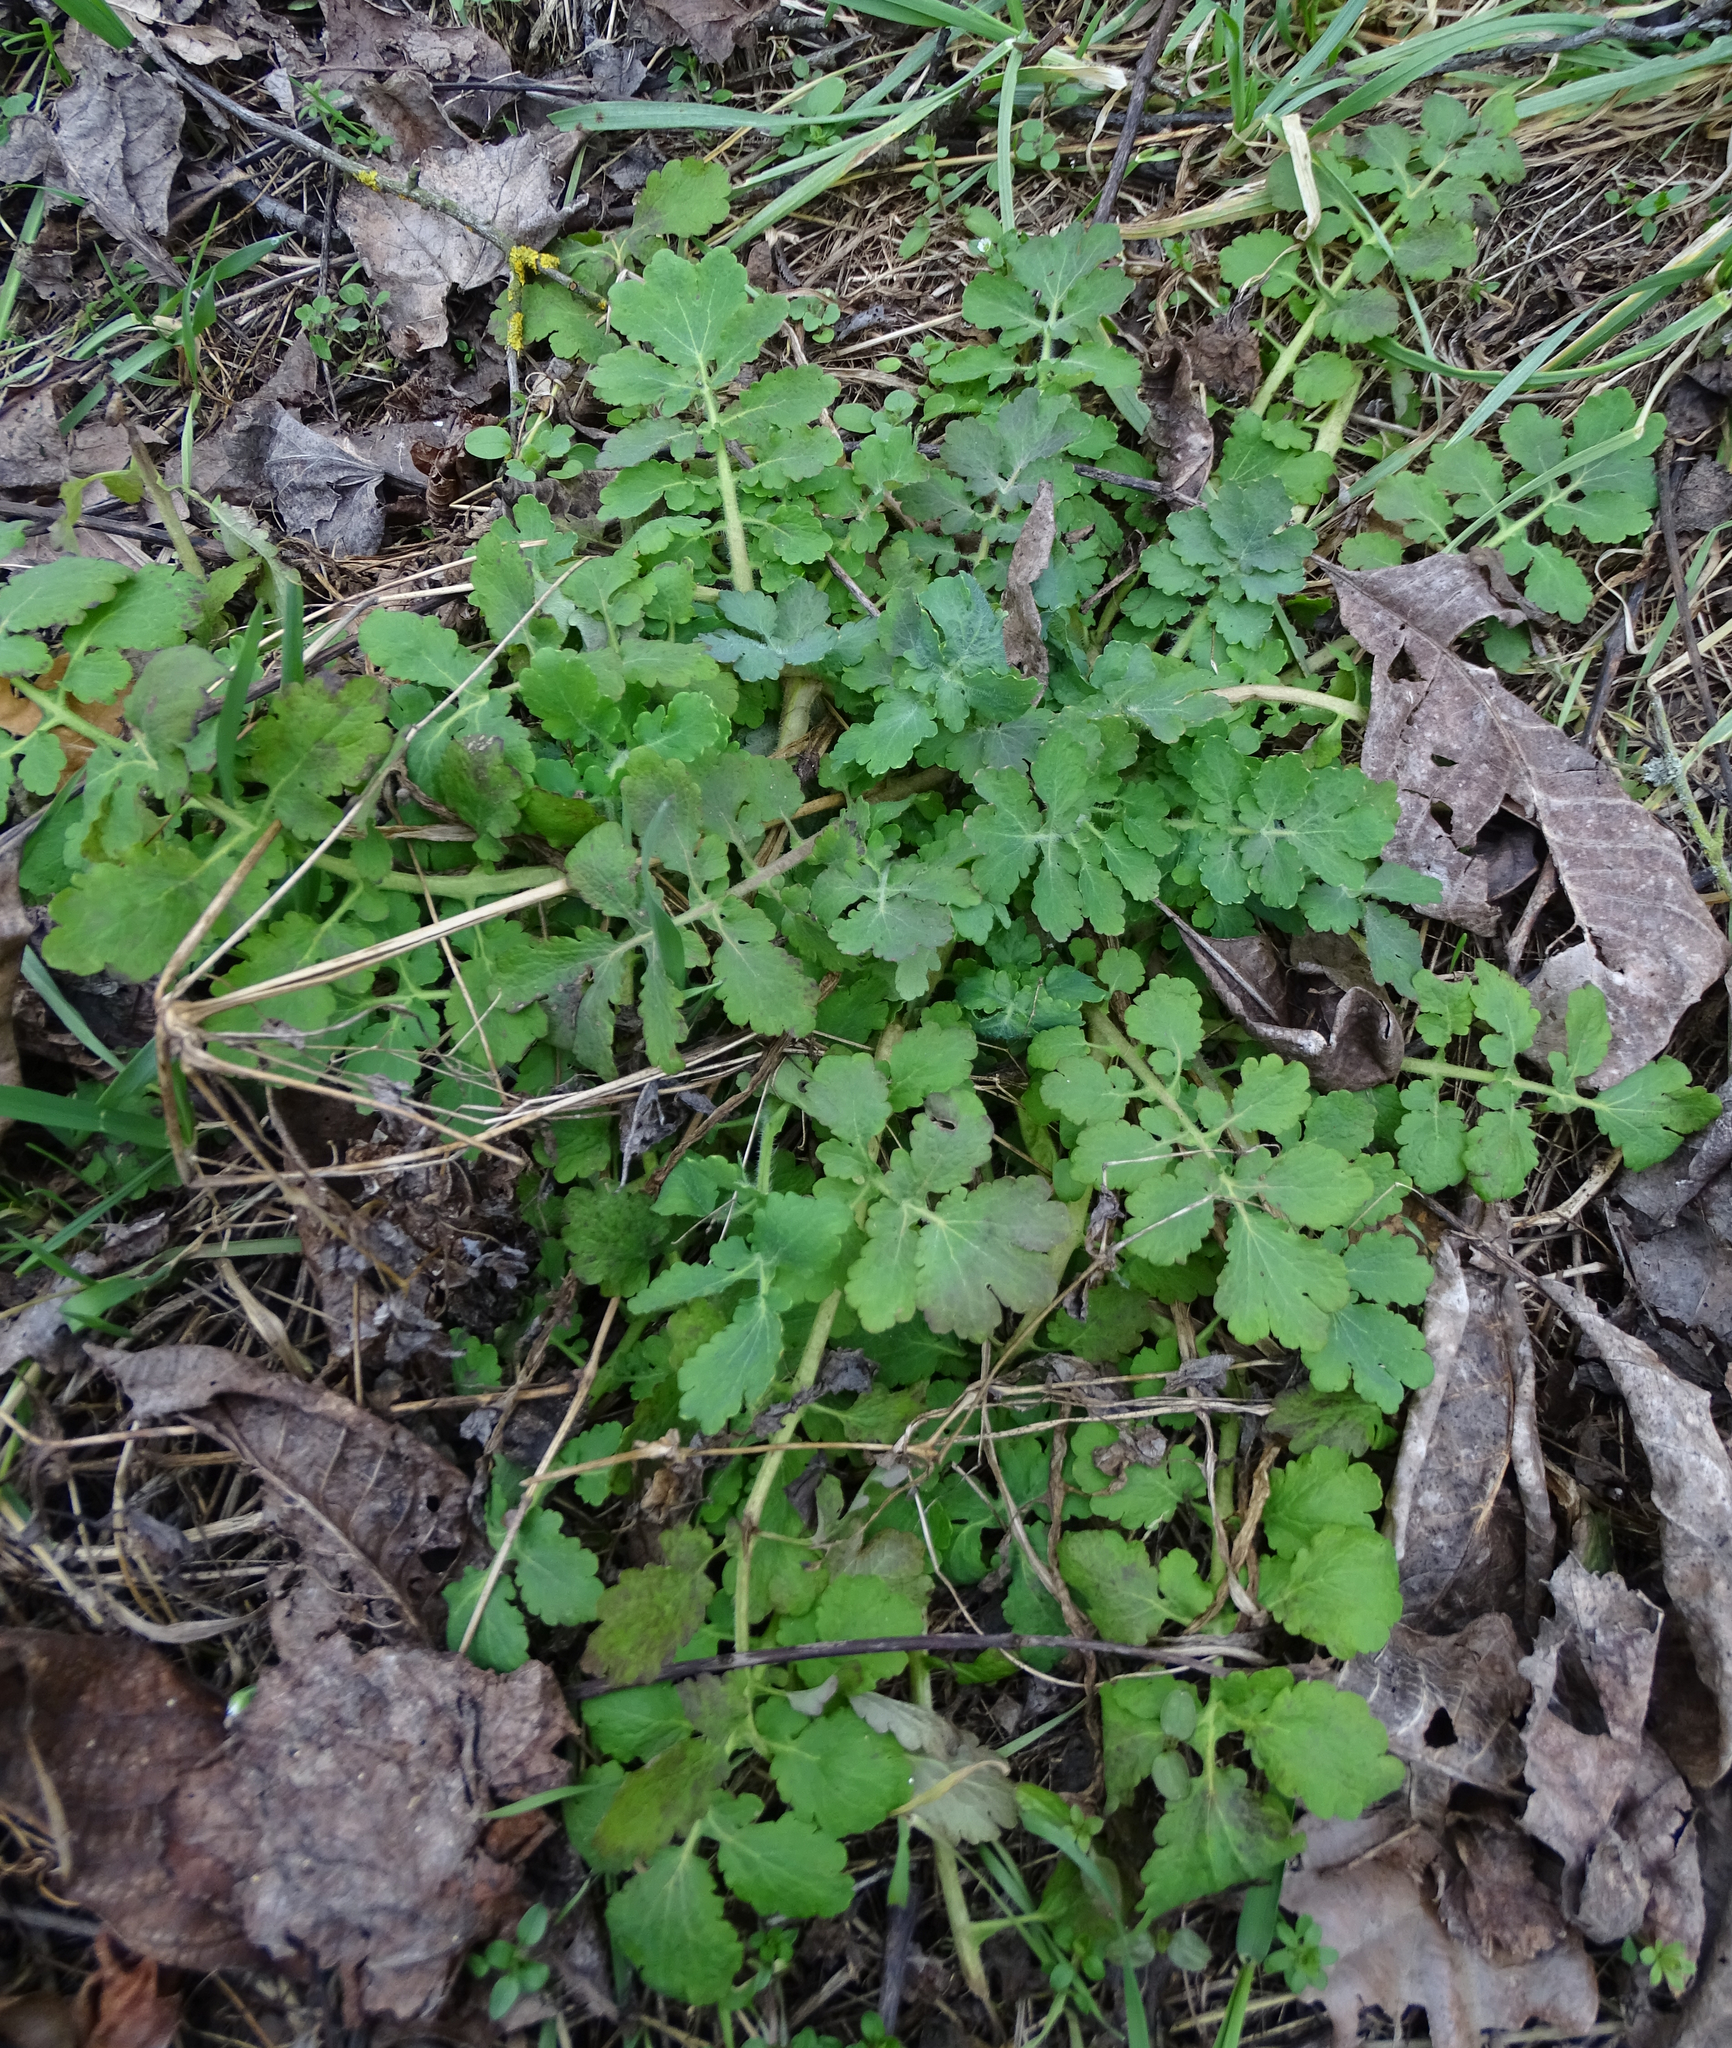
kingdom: Plantae
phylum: Tracheophyta
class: Magnoliopsida
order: Ranunculales
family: Papaveraceae
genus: Chelidonium
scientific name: Chelidonium majus
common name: Greater celandine
